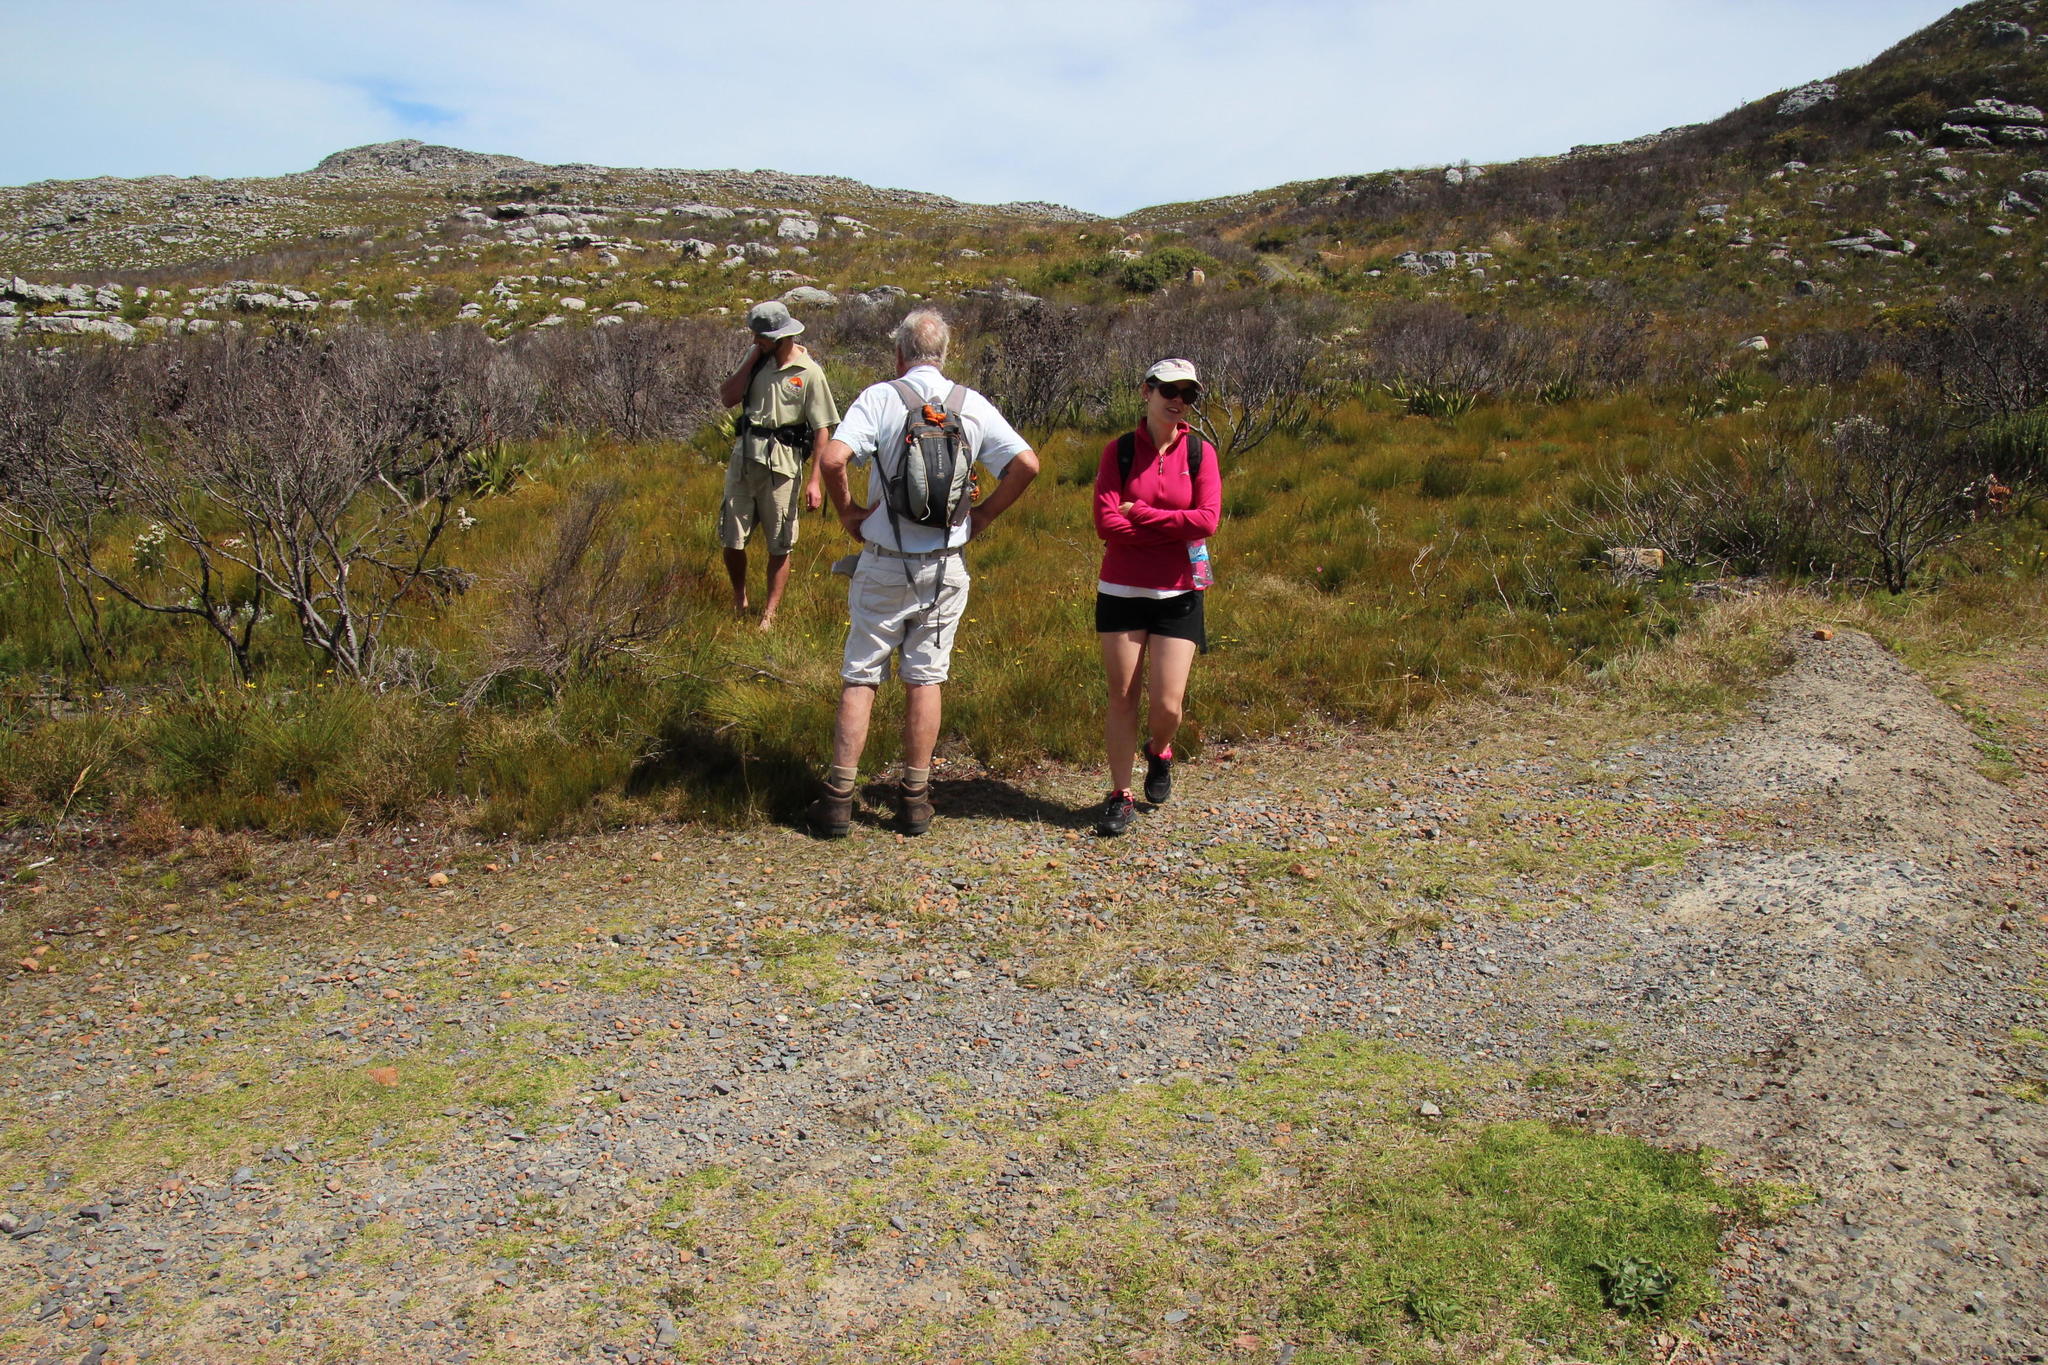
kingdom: Plantae
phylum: Tracheophyta
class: Liliopsida
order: Poales
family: Poaceae
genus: Cenchrus
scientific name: Cenchrus clandestinus
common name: Kikuyugrass
